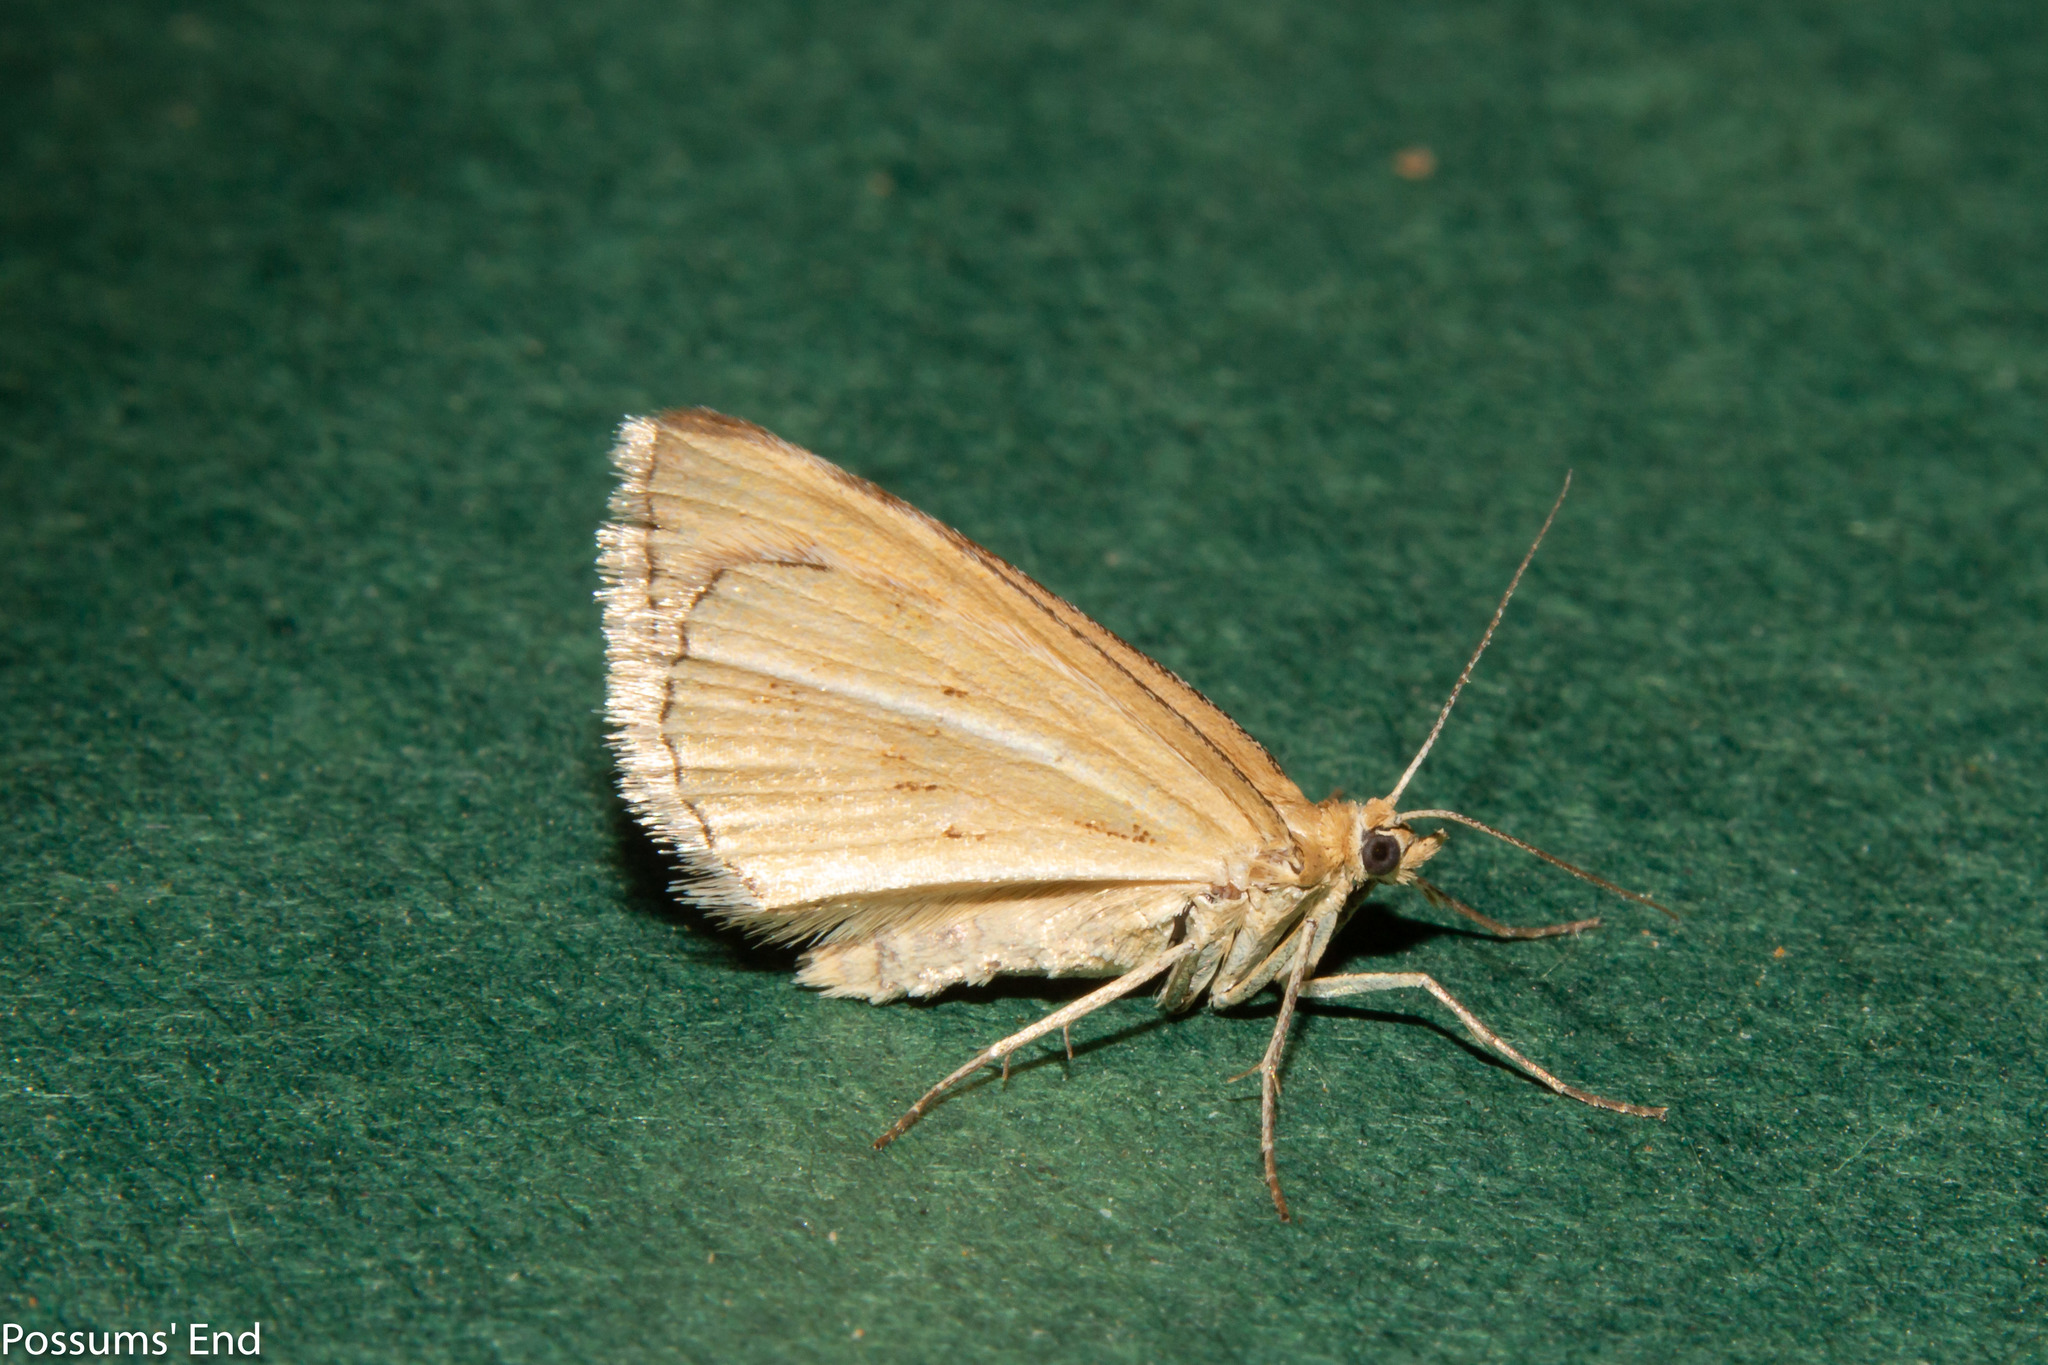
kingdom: Animalia
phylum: Arthropoda
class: Insecta
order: Lepidoptera
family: Geometridae
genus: Asaphodes
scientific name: Asaphodes abrogata
